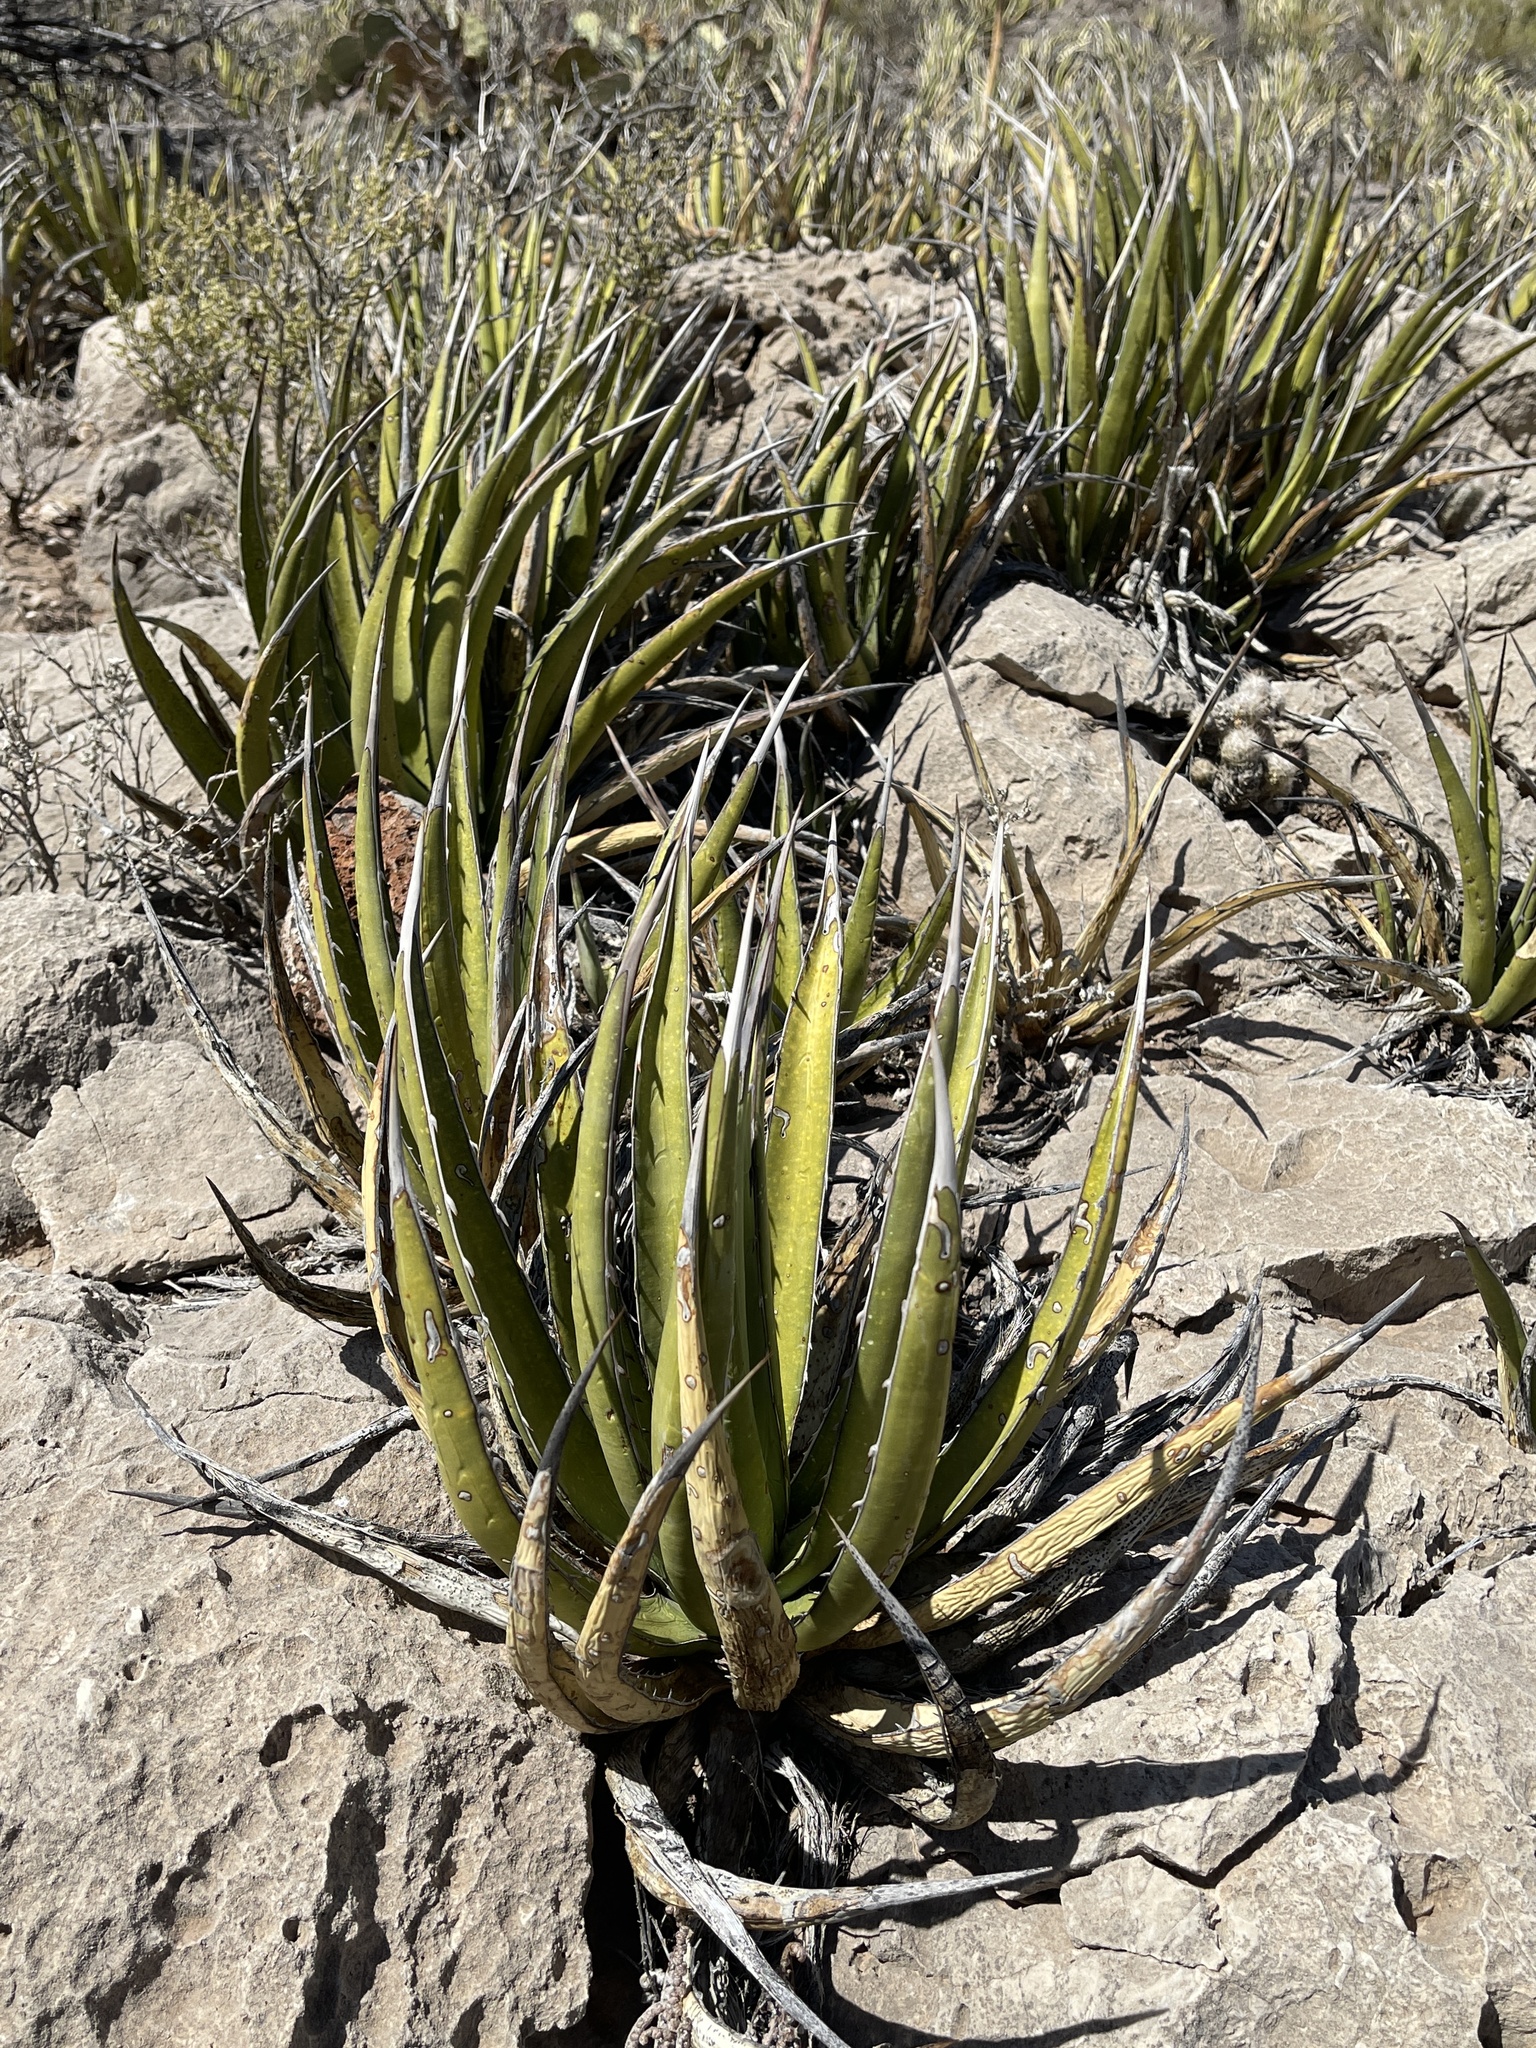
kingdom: Plantae
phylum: Tracheophyta
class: Liliopsida
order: Asparagales
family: Asparagaceae
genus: Agave
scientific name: Agave lechuguilla
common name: Lecheguilla agave
